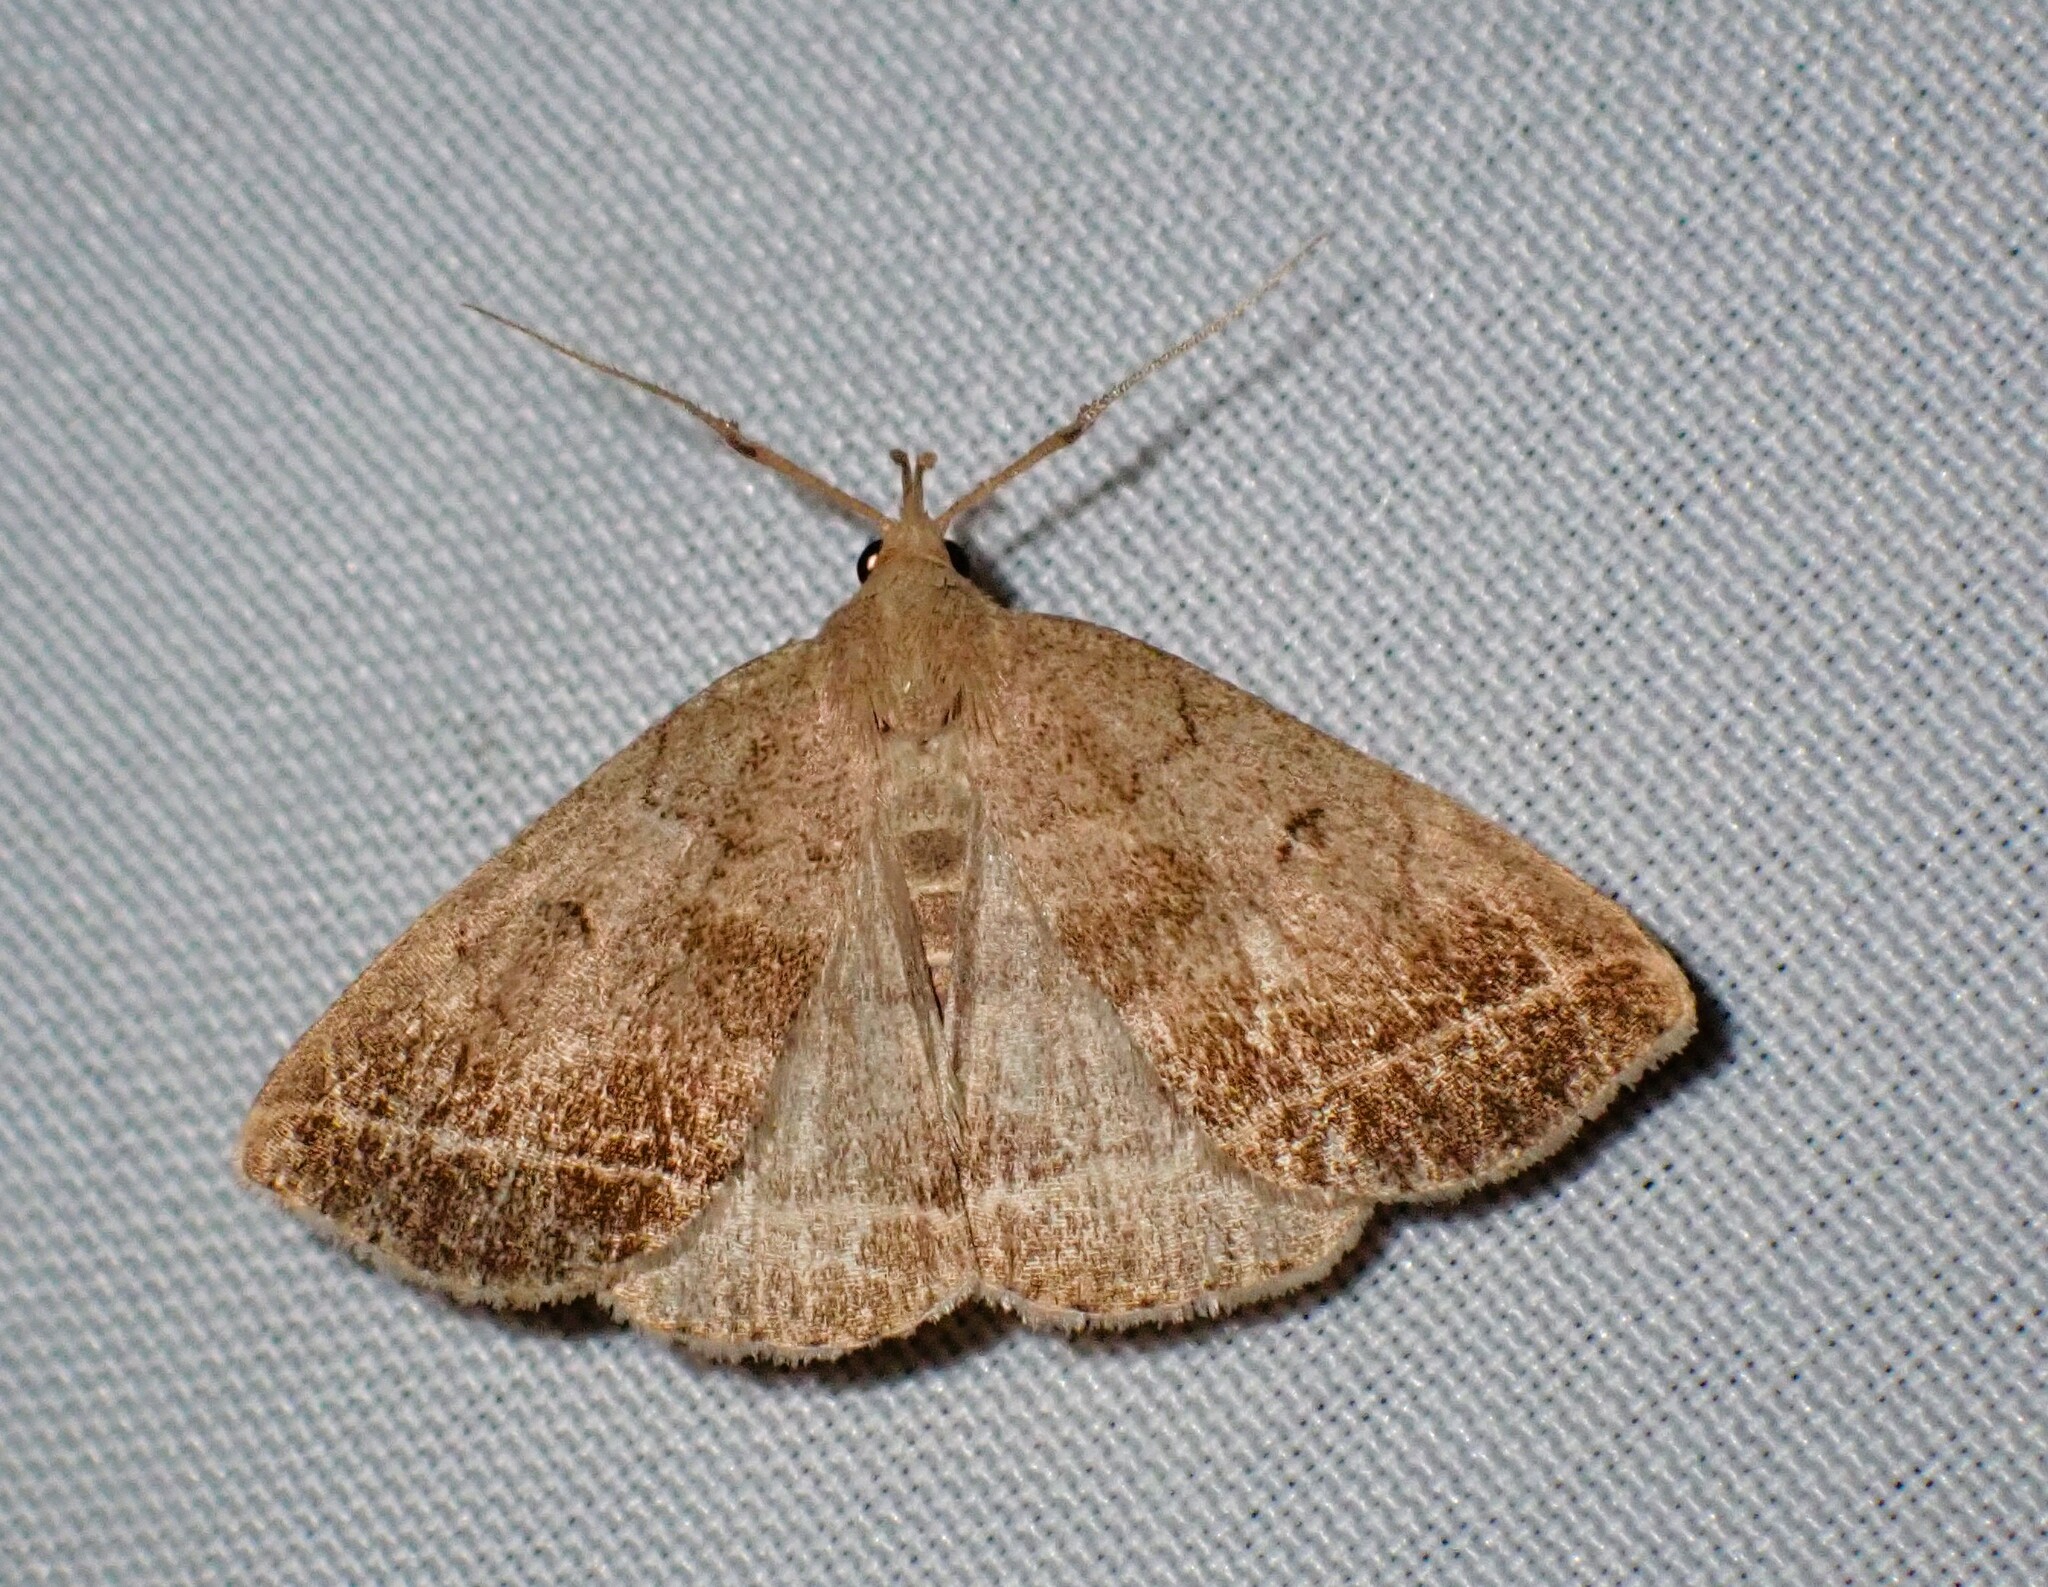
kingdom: Animalia
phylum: Arthropoda
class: Insecta
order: Lepidoptera
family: Erebidae
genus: Zanclognatha
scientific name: Zanclognatha jacchusalis
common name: Yellowish zanclognatha
